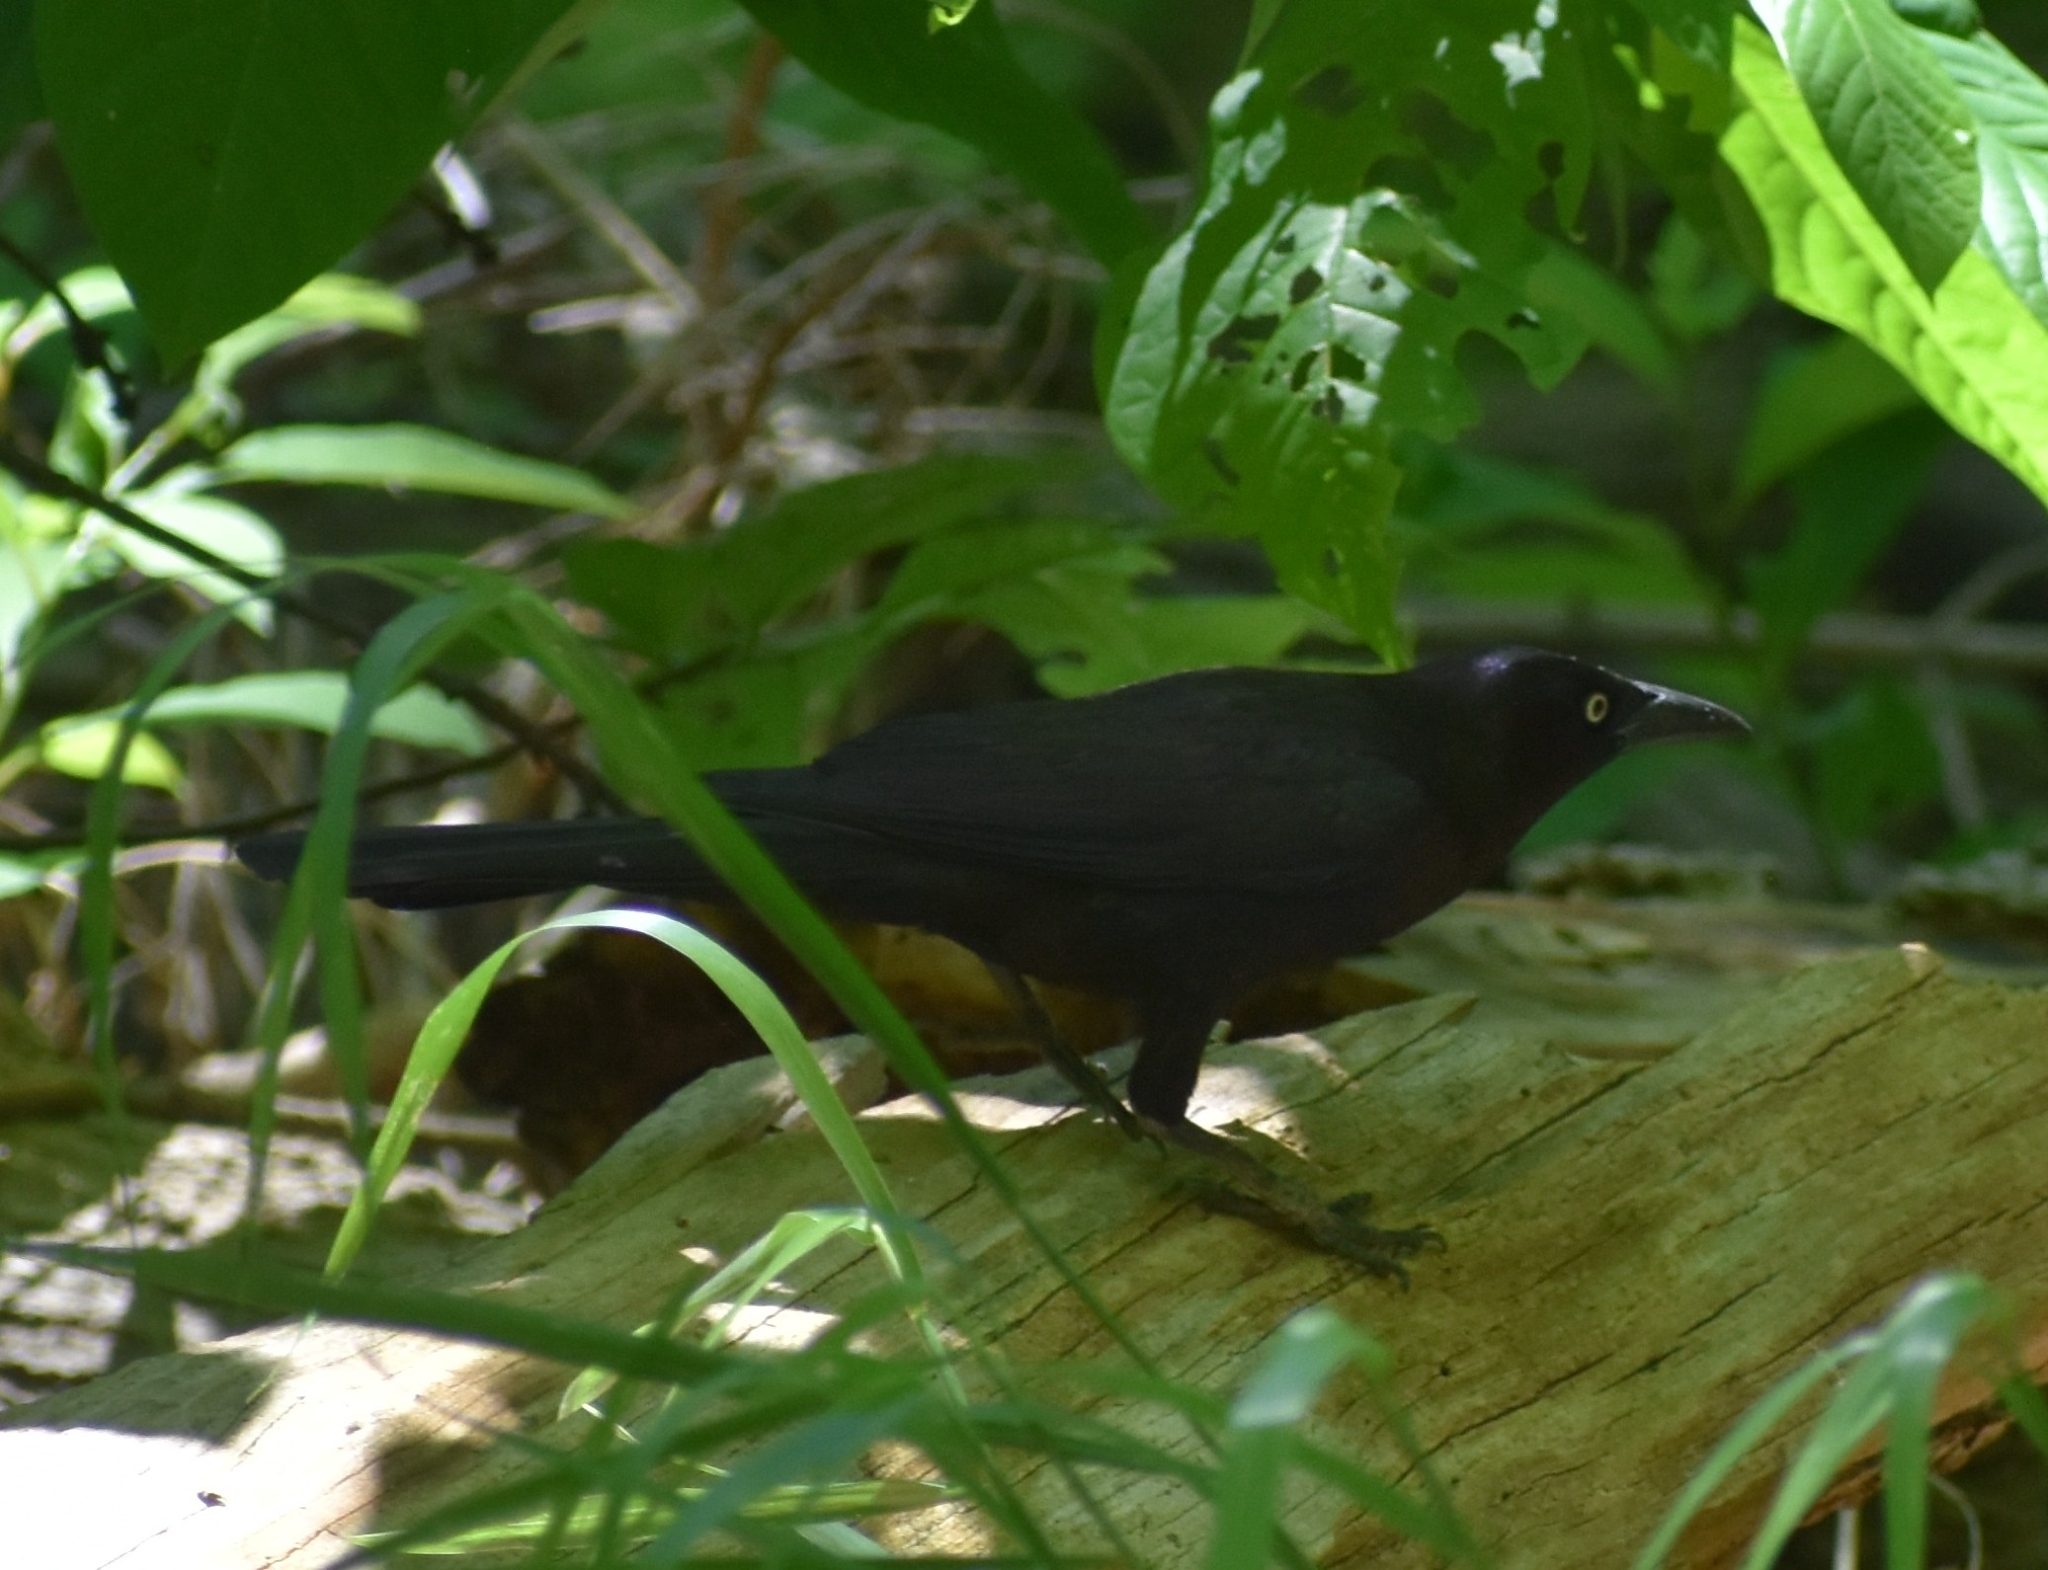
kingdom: Animalia
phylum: Chordata
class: Aves
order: Passeriformes
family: Icteridae
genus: Quiscalus
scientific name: Quiscalus quiscula
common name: Common grackle
